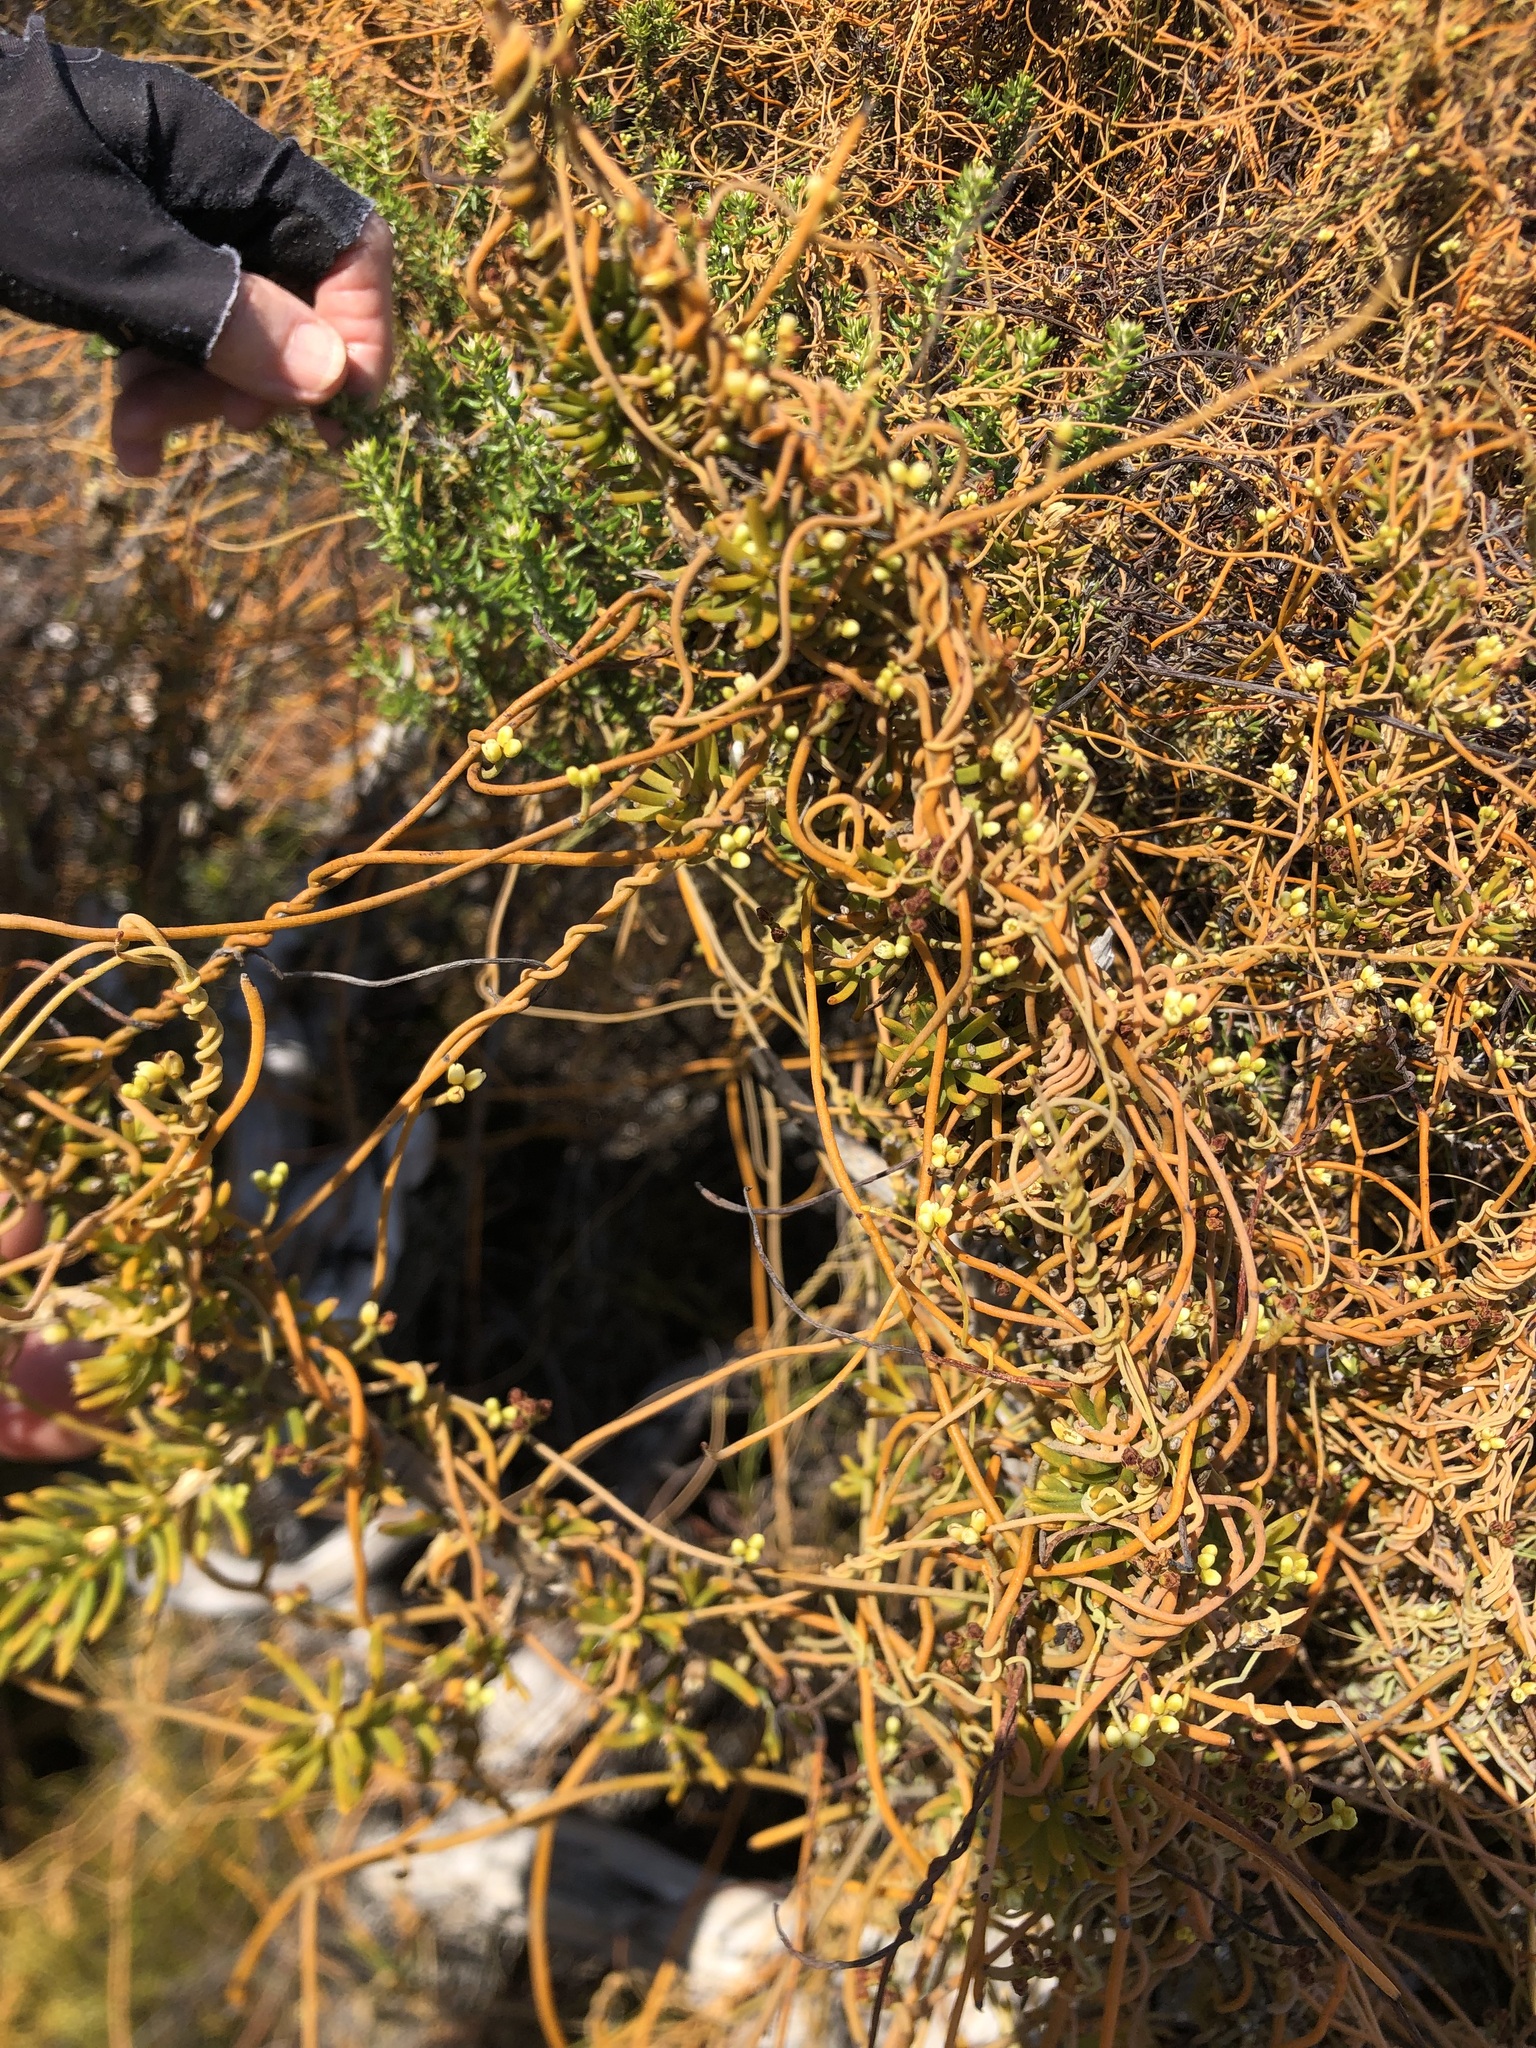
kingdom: Plantae
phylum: Tracheophyta
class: Magnoliopsida
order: Laurales
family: Lauraceae
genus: Cassytha
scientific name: Cassytha ciliolata
